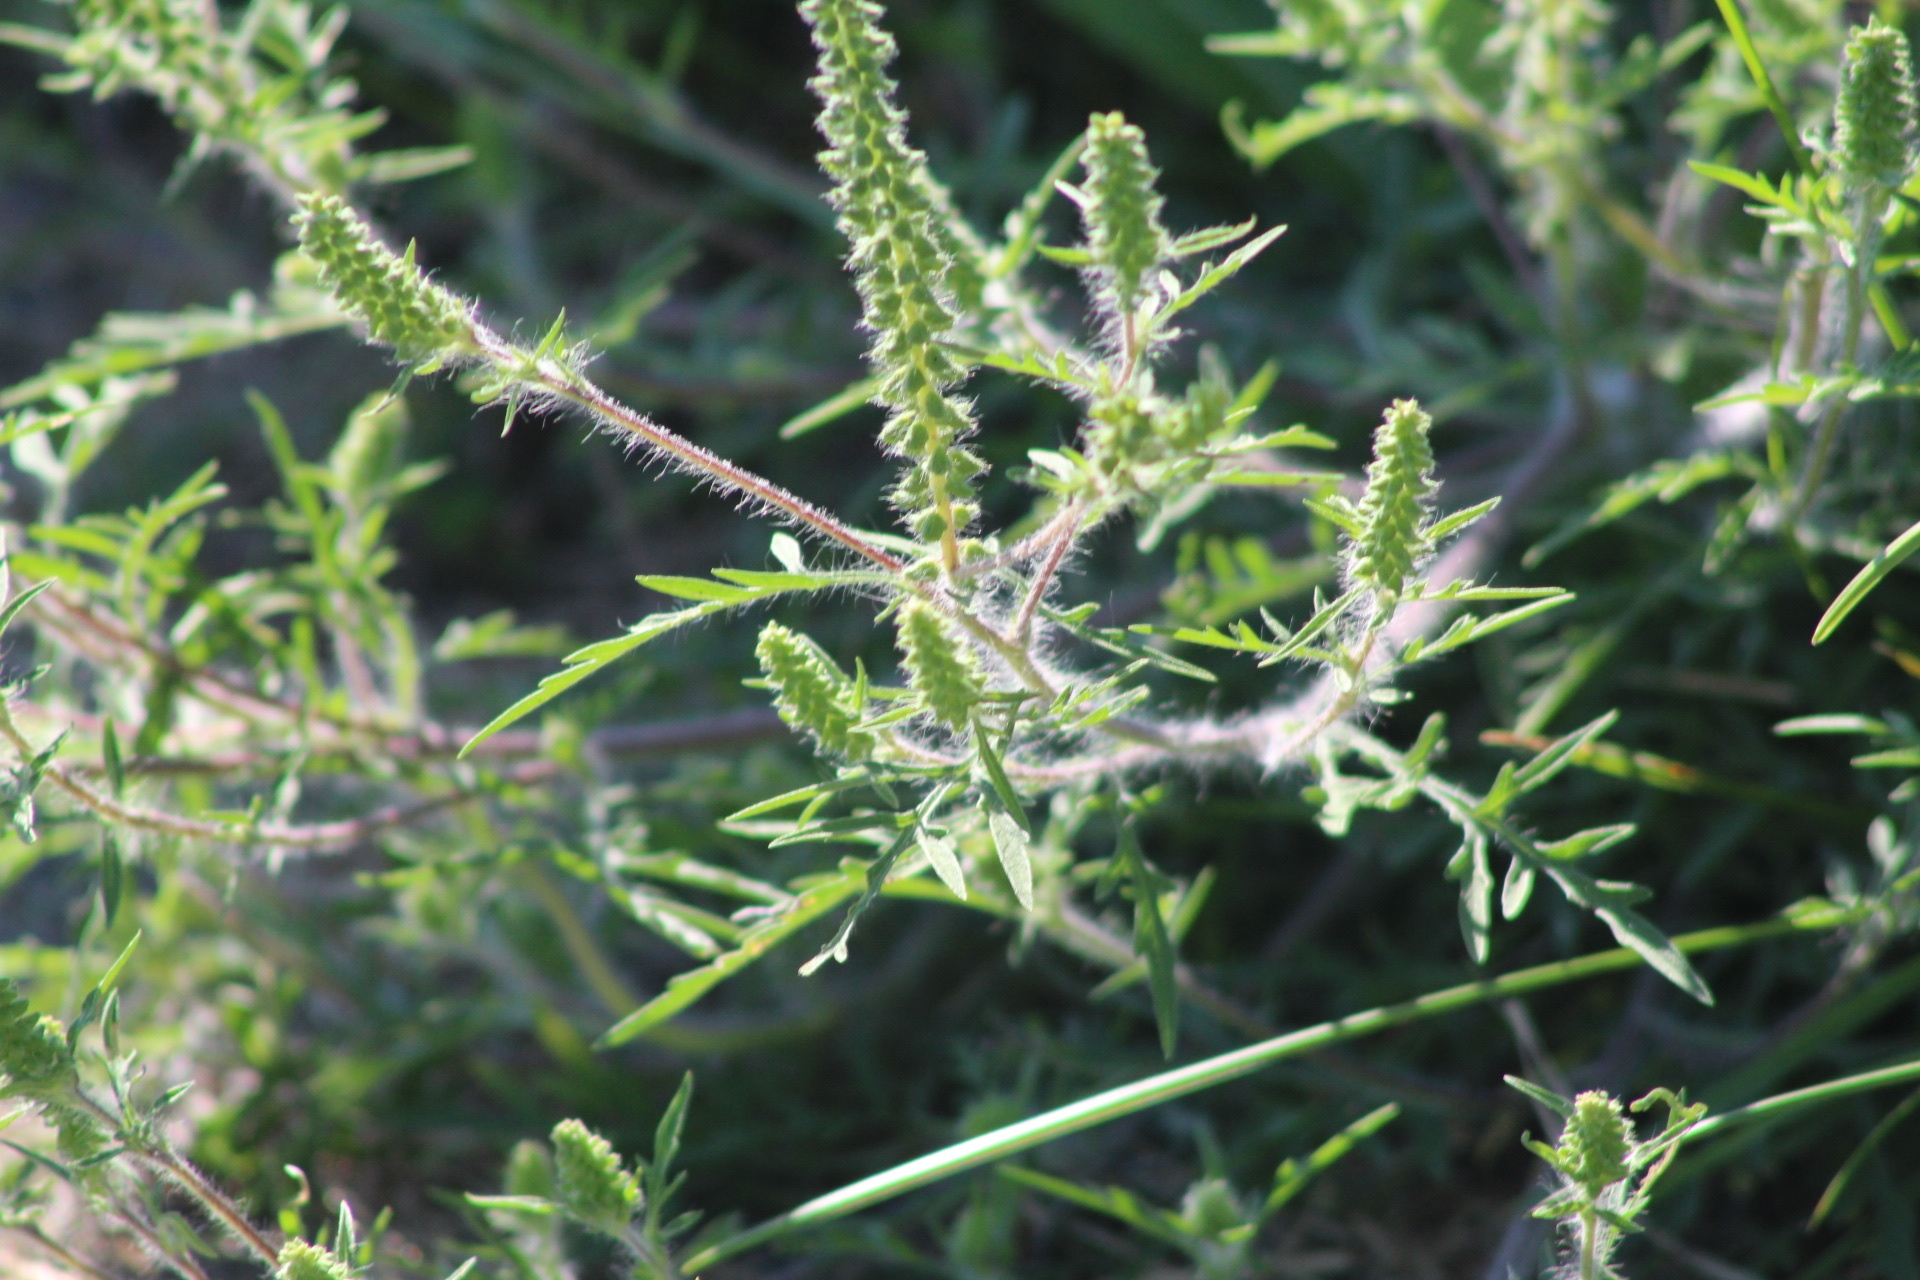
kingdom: Plantae
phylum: Tracheophyta
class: Magnoliopsida
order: Asterales
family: Asteraceae
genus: Ambrosia
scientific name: Ambrosia artemisiifolia
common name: Annual ragweed
